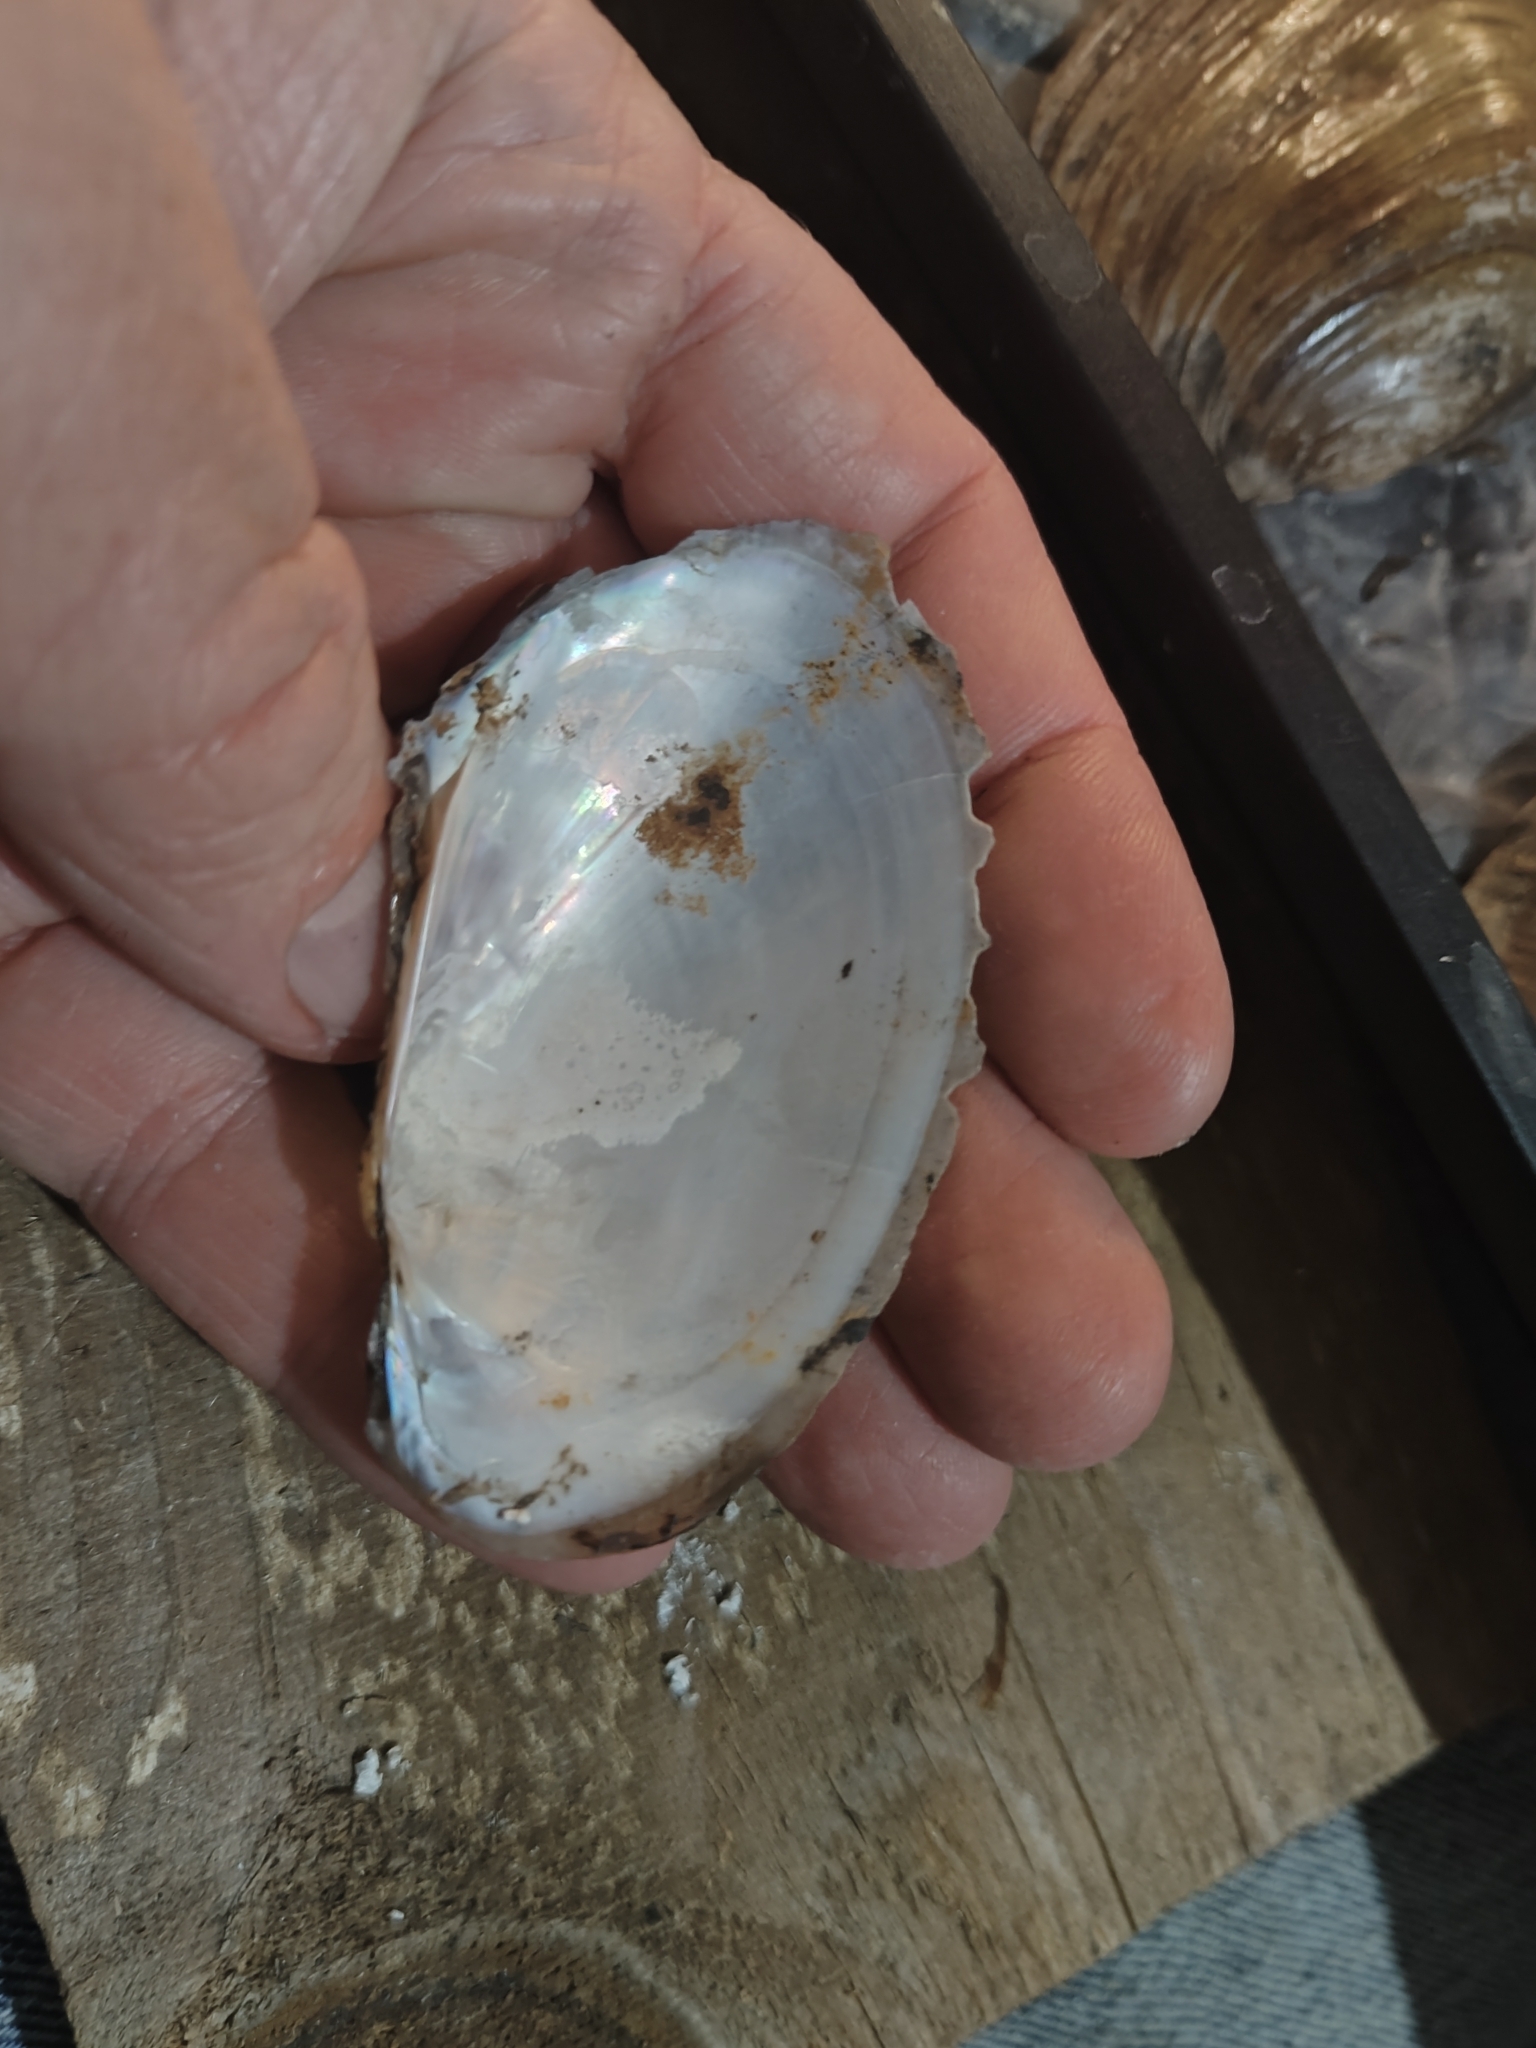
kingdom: Animalia
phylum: Mollusca
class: Bivalvia
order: Unionida
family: Unionidae
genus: Potamilus
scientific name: Potamilus fragilis
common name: Fragile papershell
